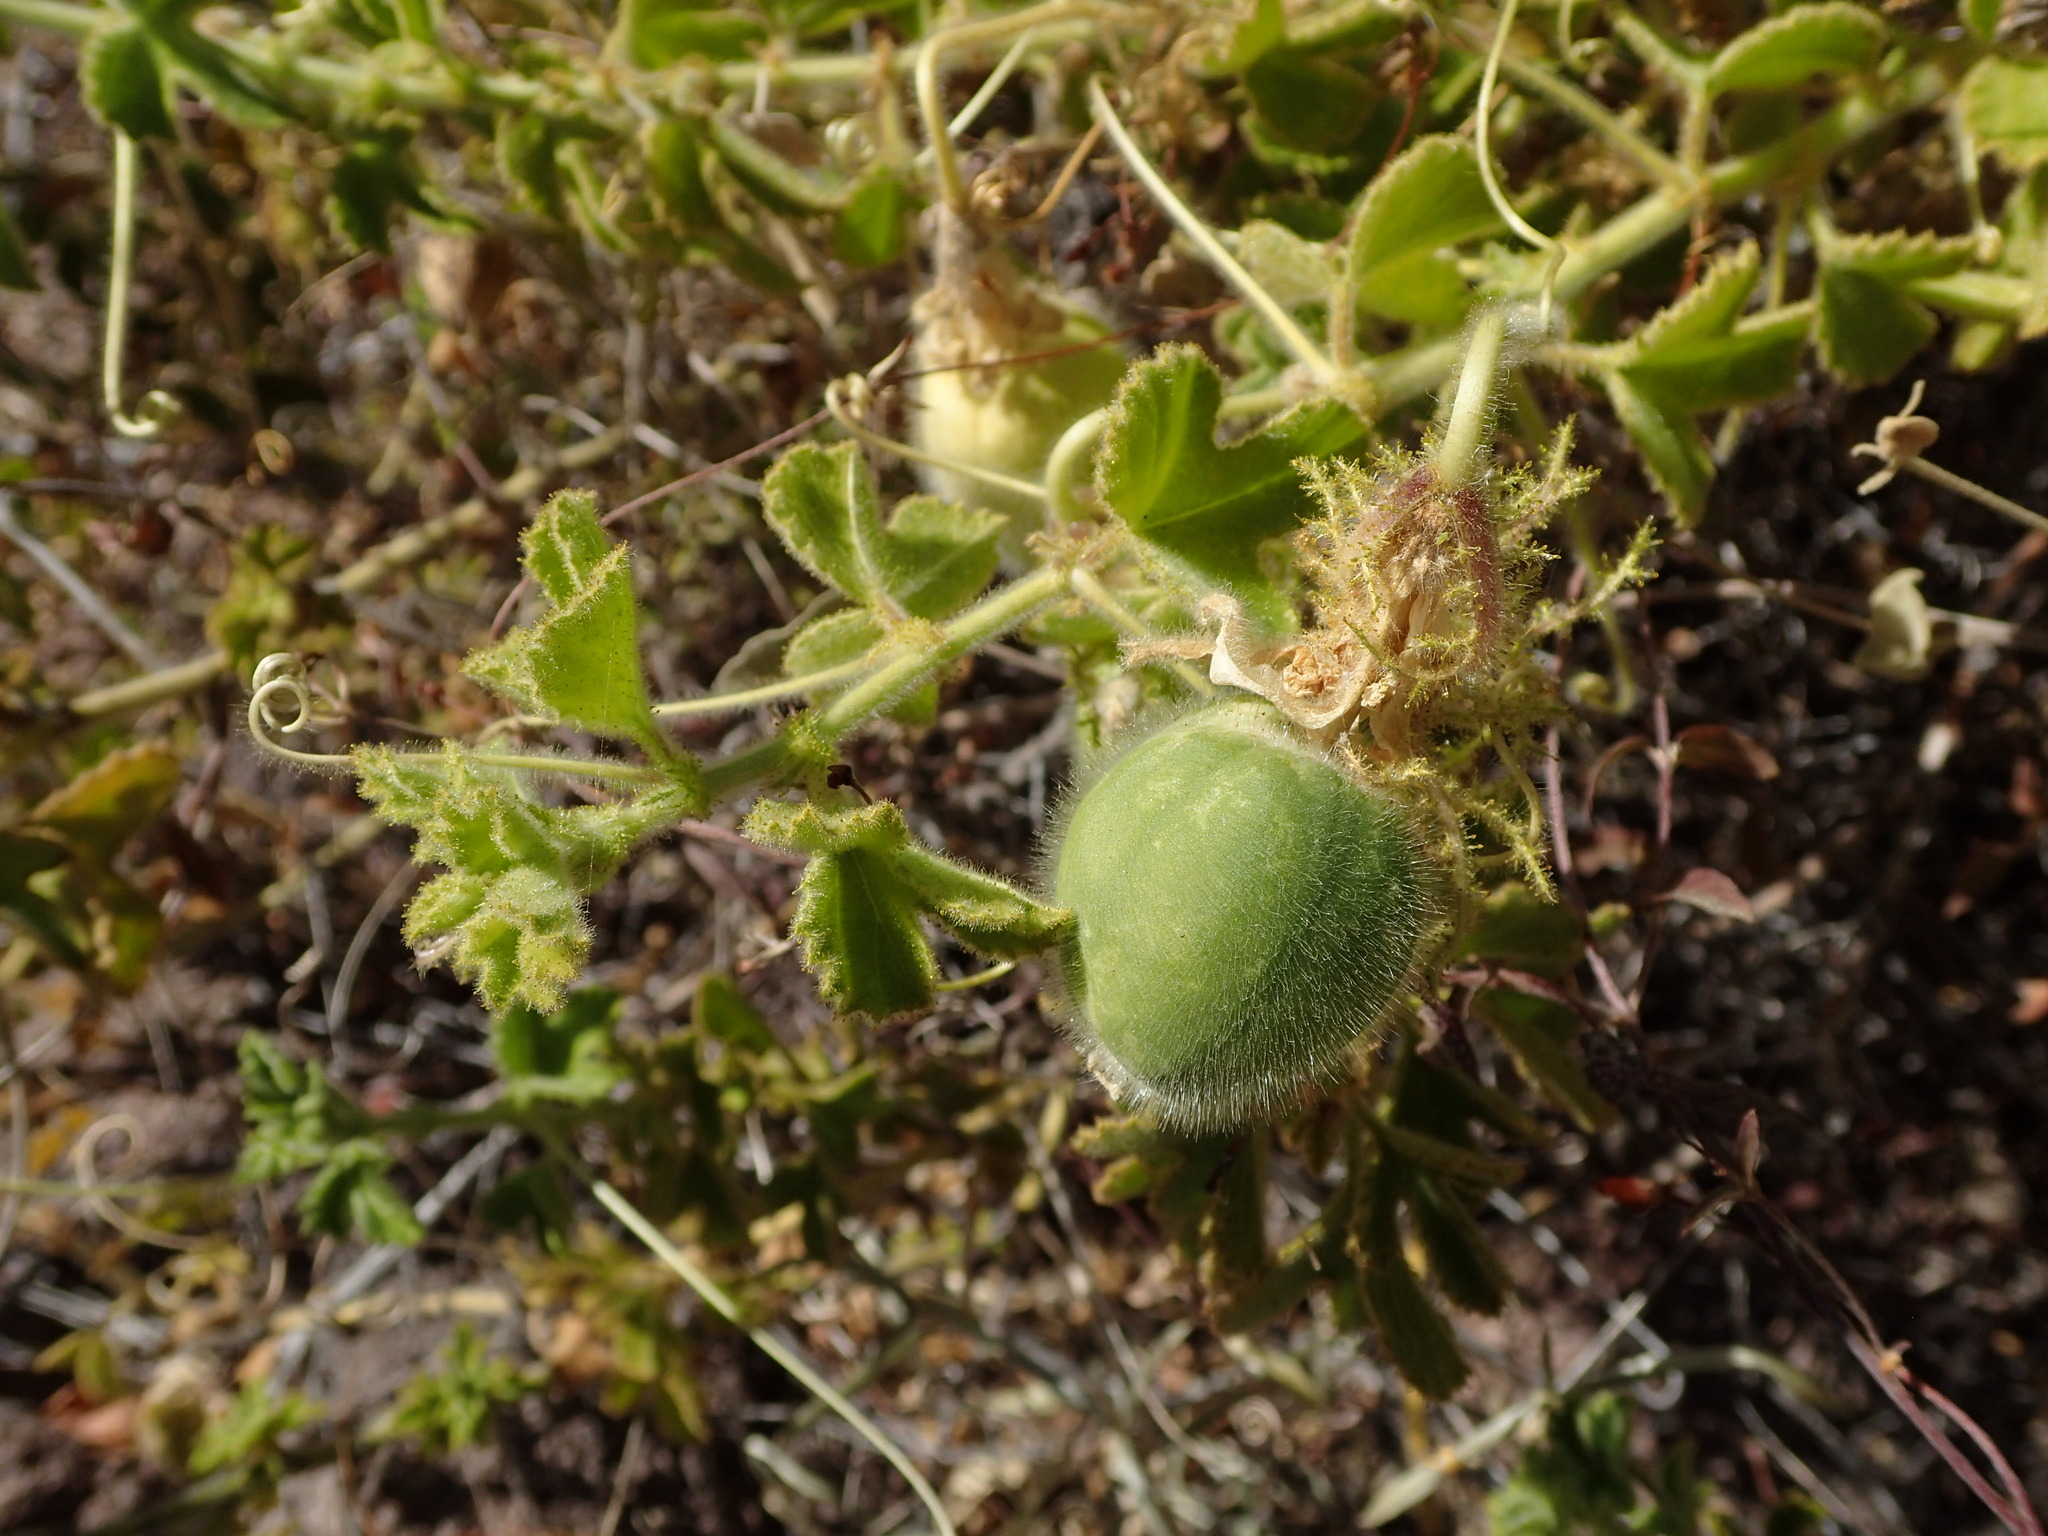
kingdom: Plantae
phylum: Tracheophyta
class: Magnoliopsida
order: Malpighiales
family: Passifloraceae
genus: Passiflora
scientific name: Passiflora palmeri
